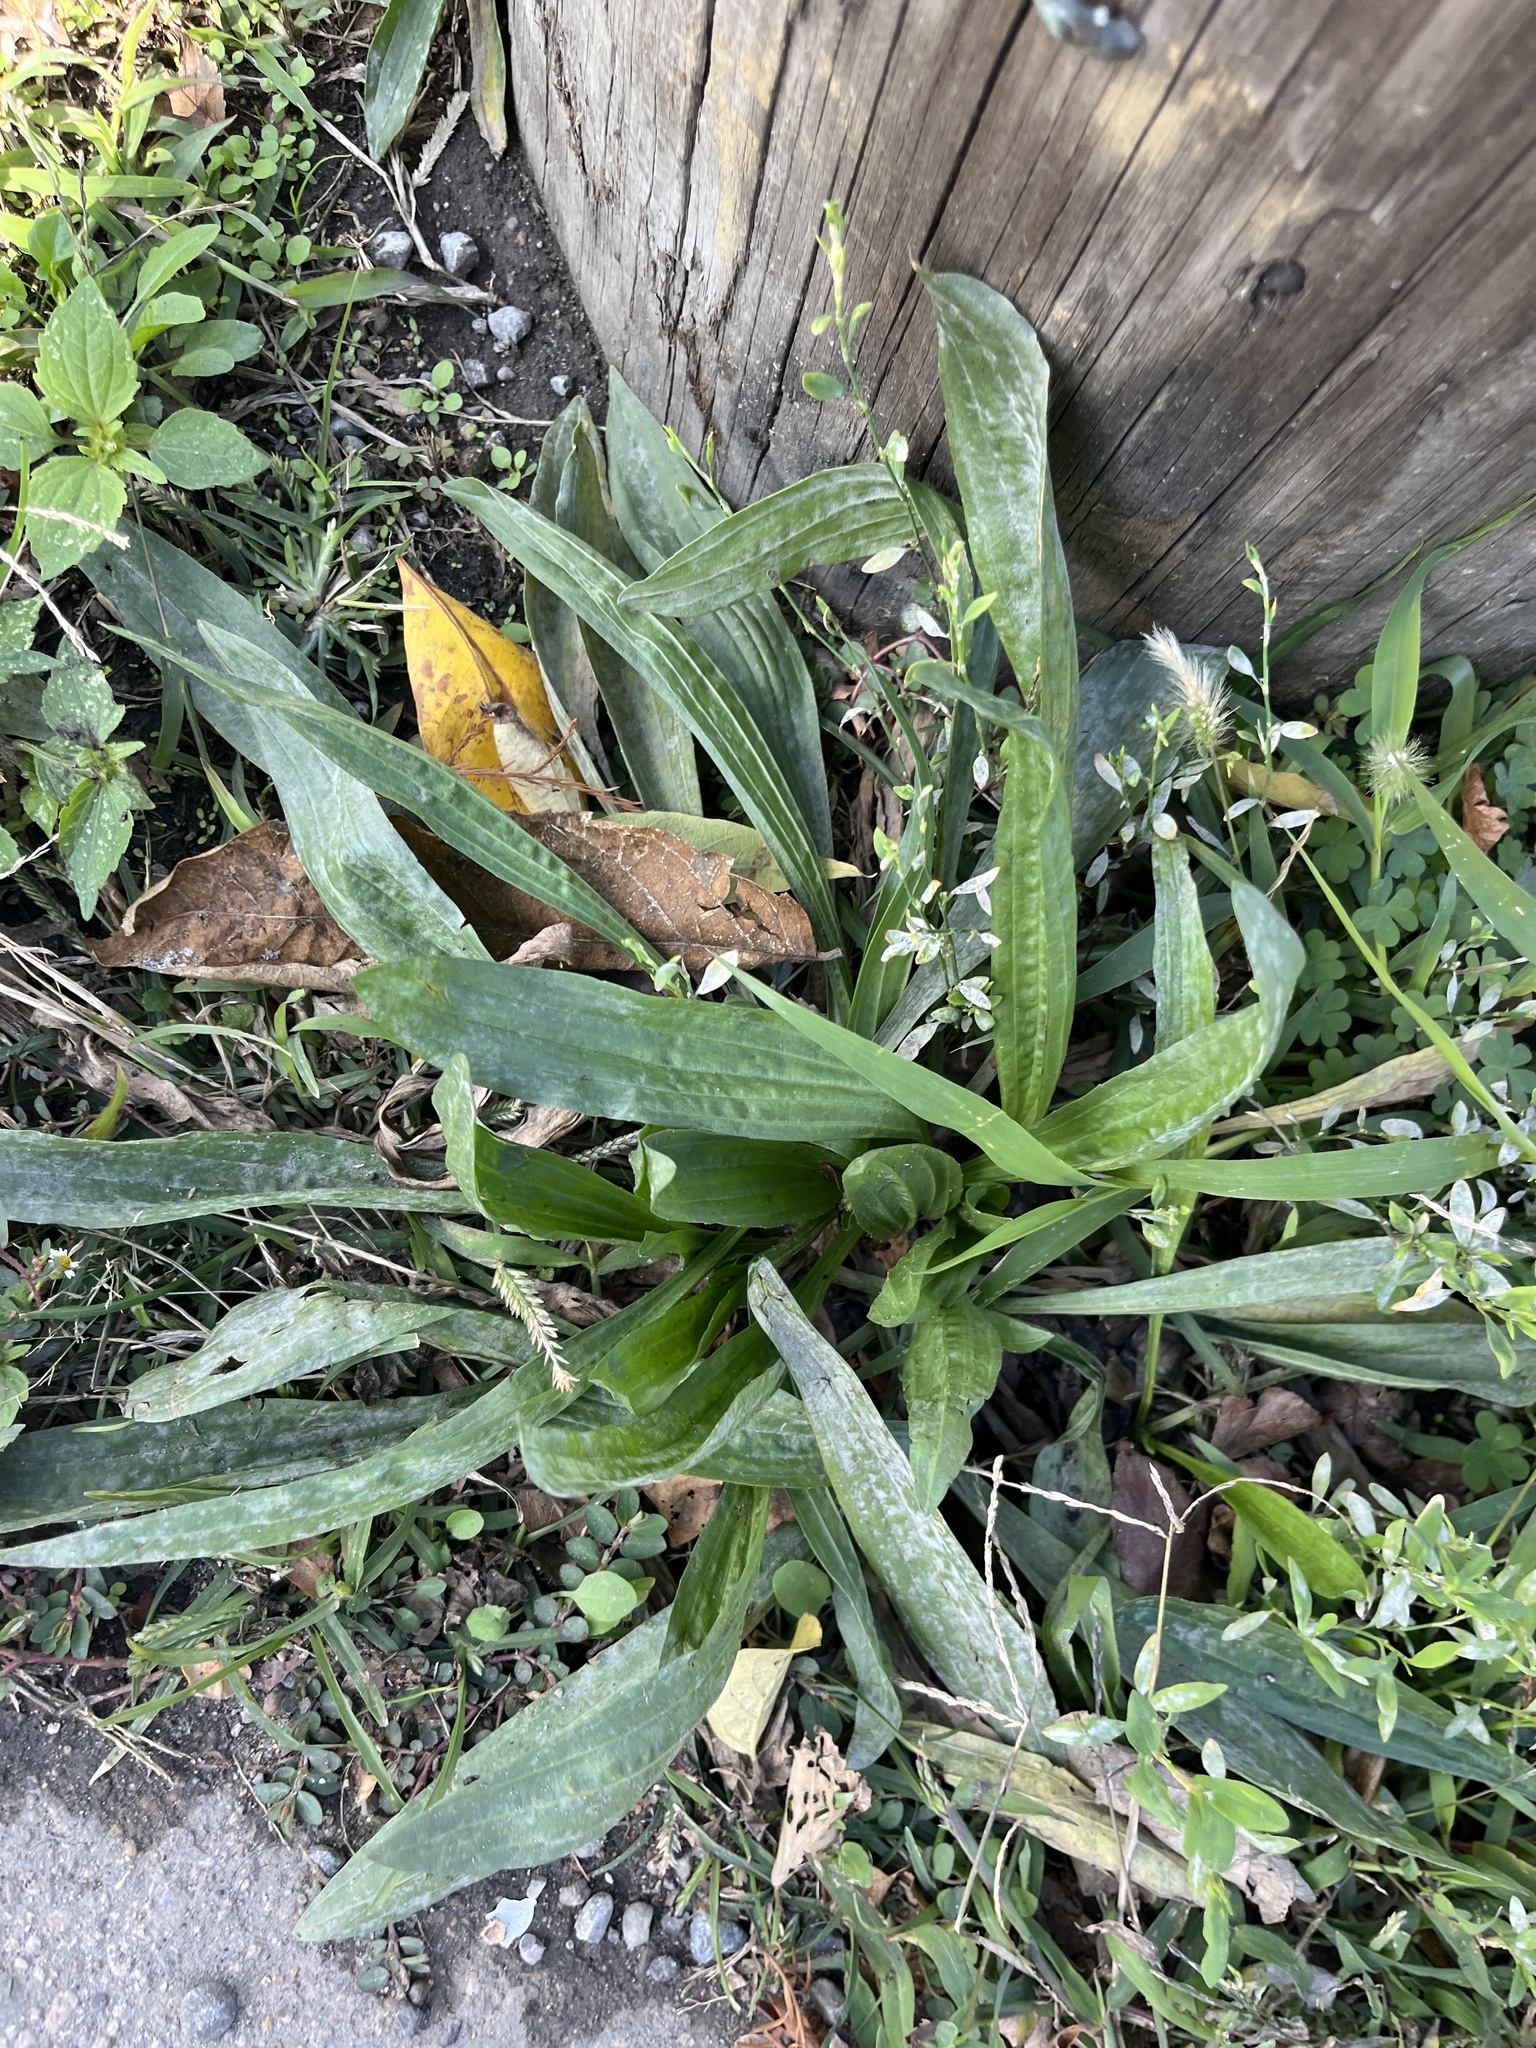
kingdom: Plantae
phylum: Tracheophyta
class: Magnoliopsida
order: Lamiales
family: Plantaginaceae
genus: Plantago
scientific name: Plantago lanceolata
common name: Ribwort plantain
